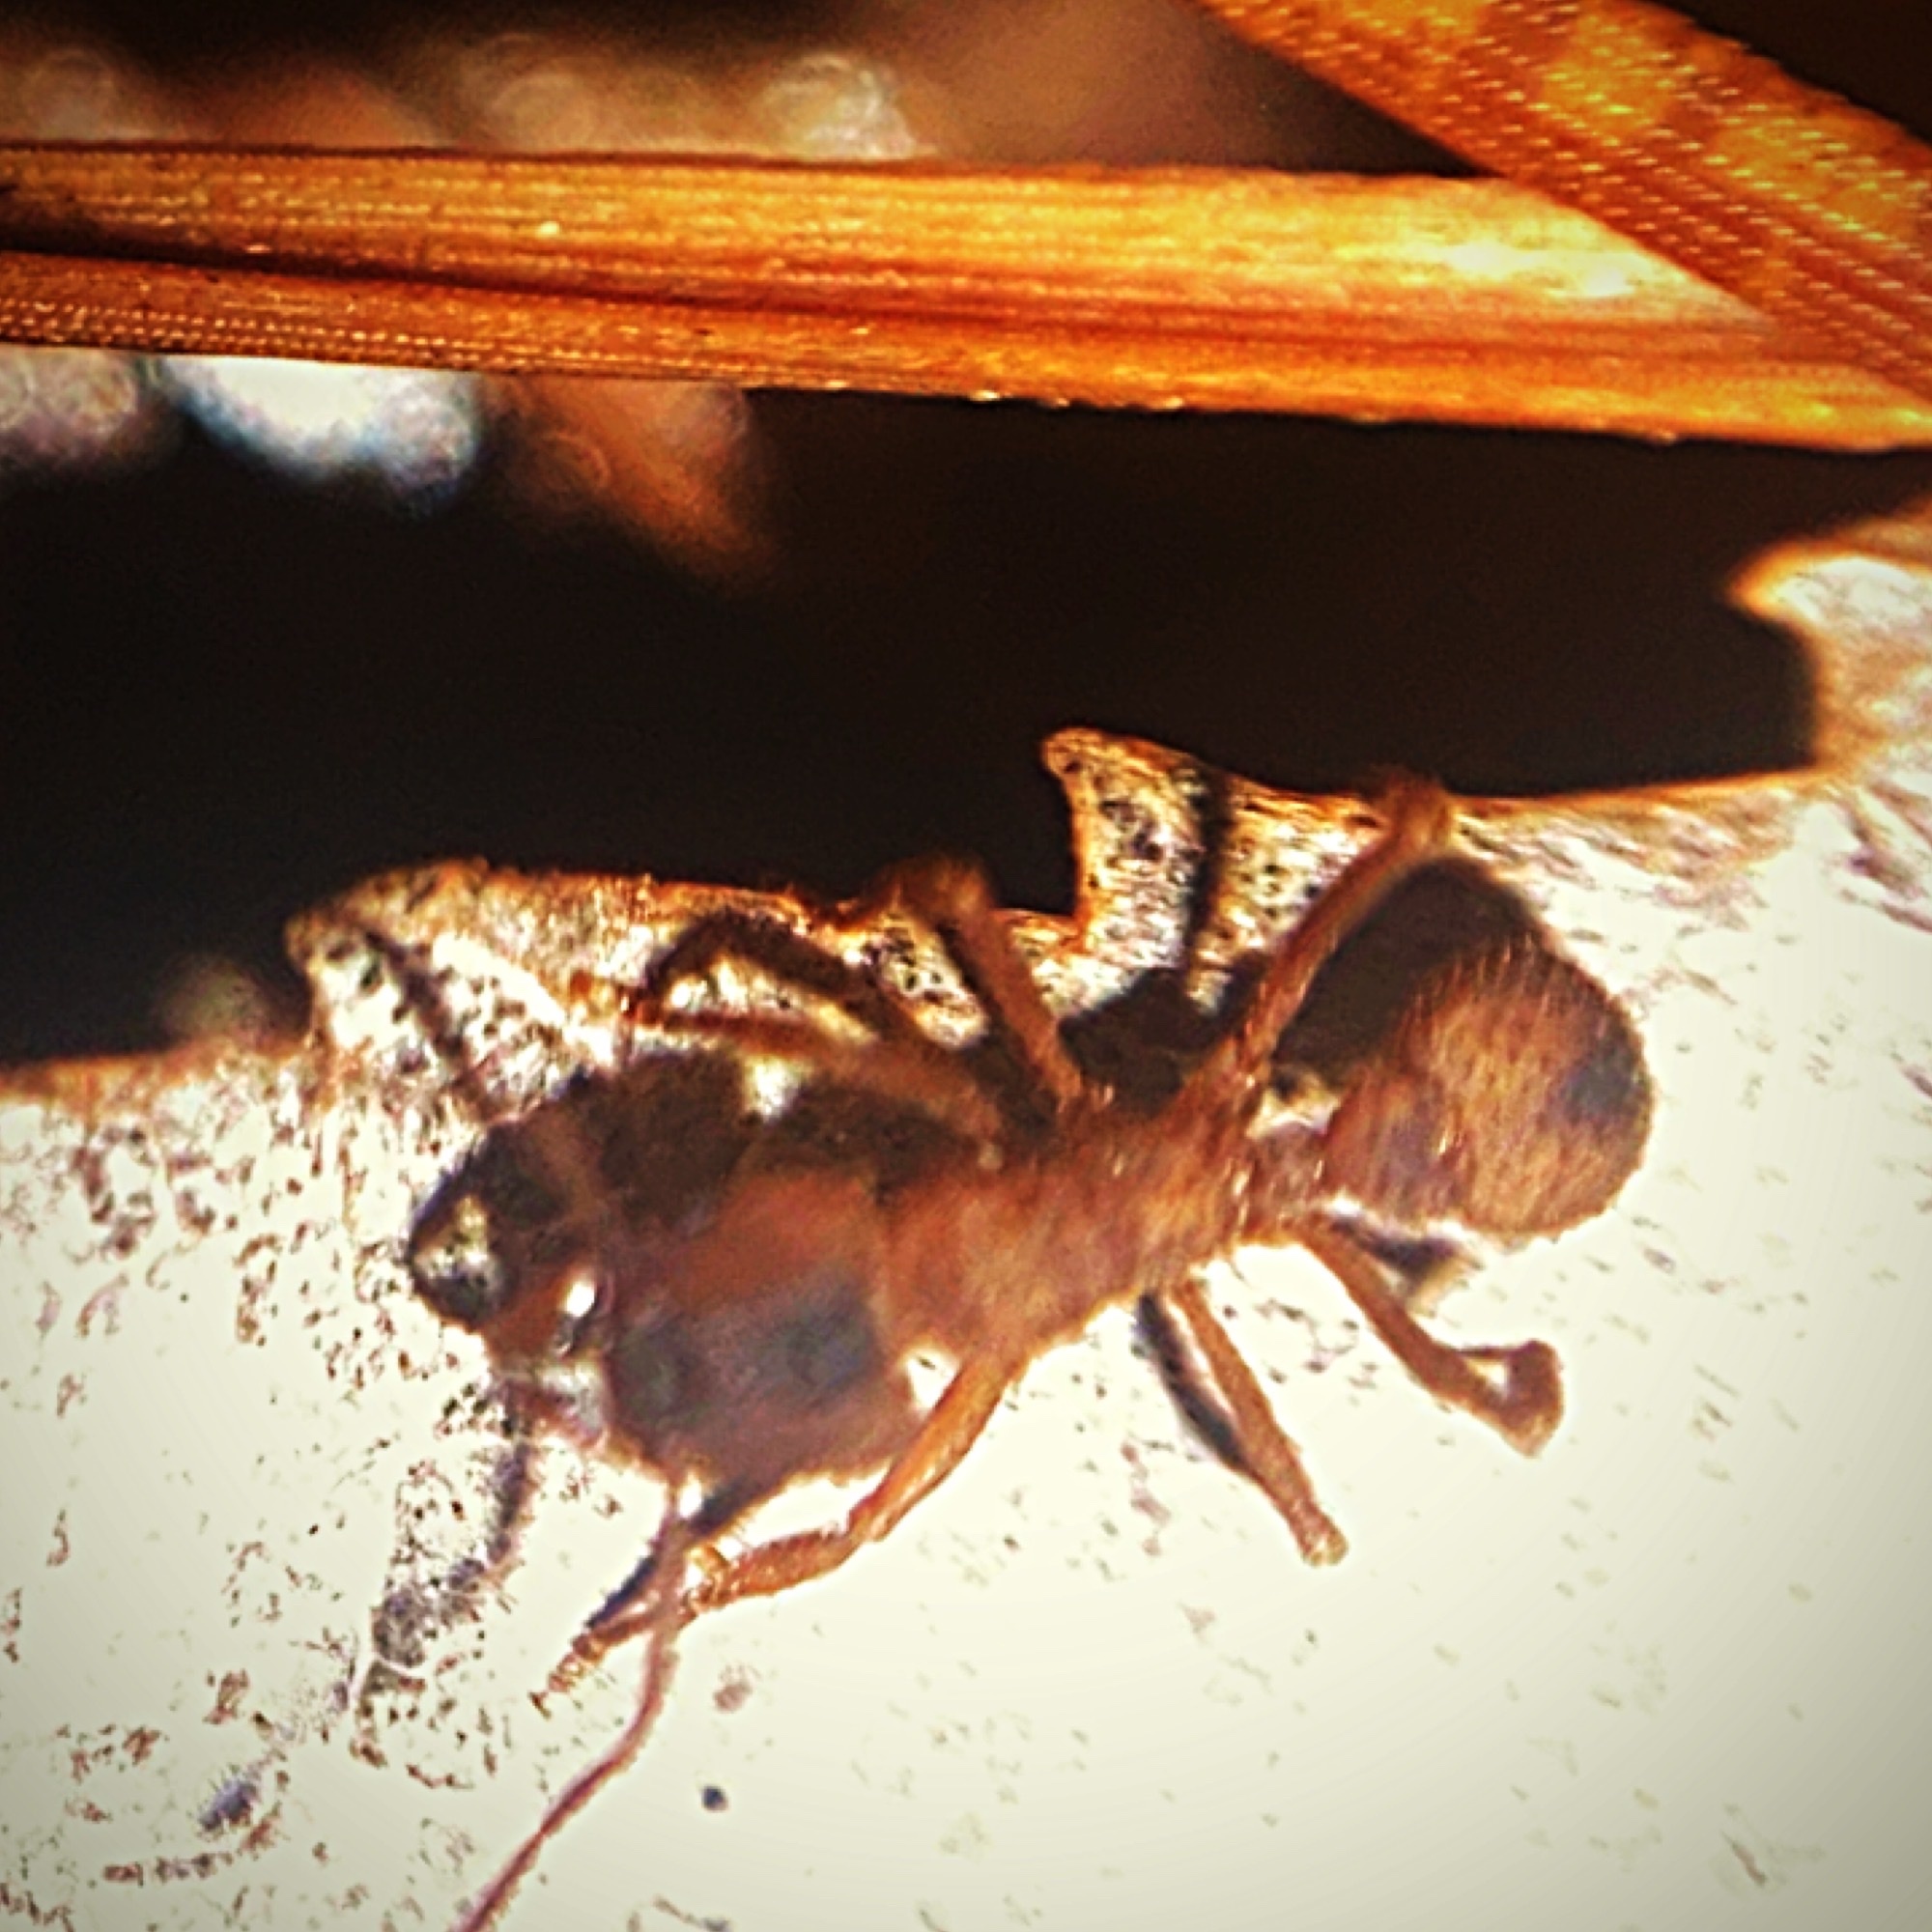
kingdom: Animalia
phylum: Arthropoda
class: Insecta
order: Hymenoptera
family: Formicidae
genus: Trachymyrmex
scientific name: Trachymyrmex septentrionalis
